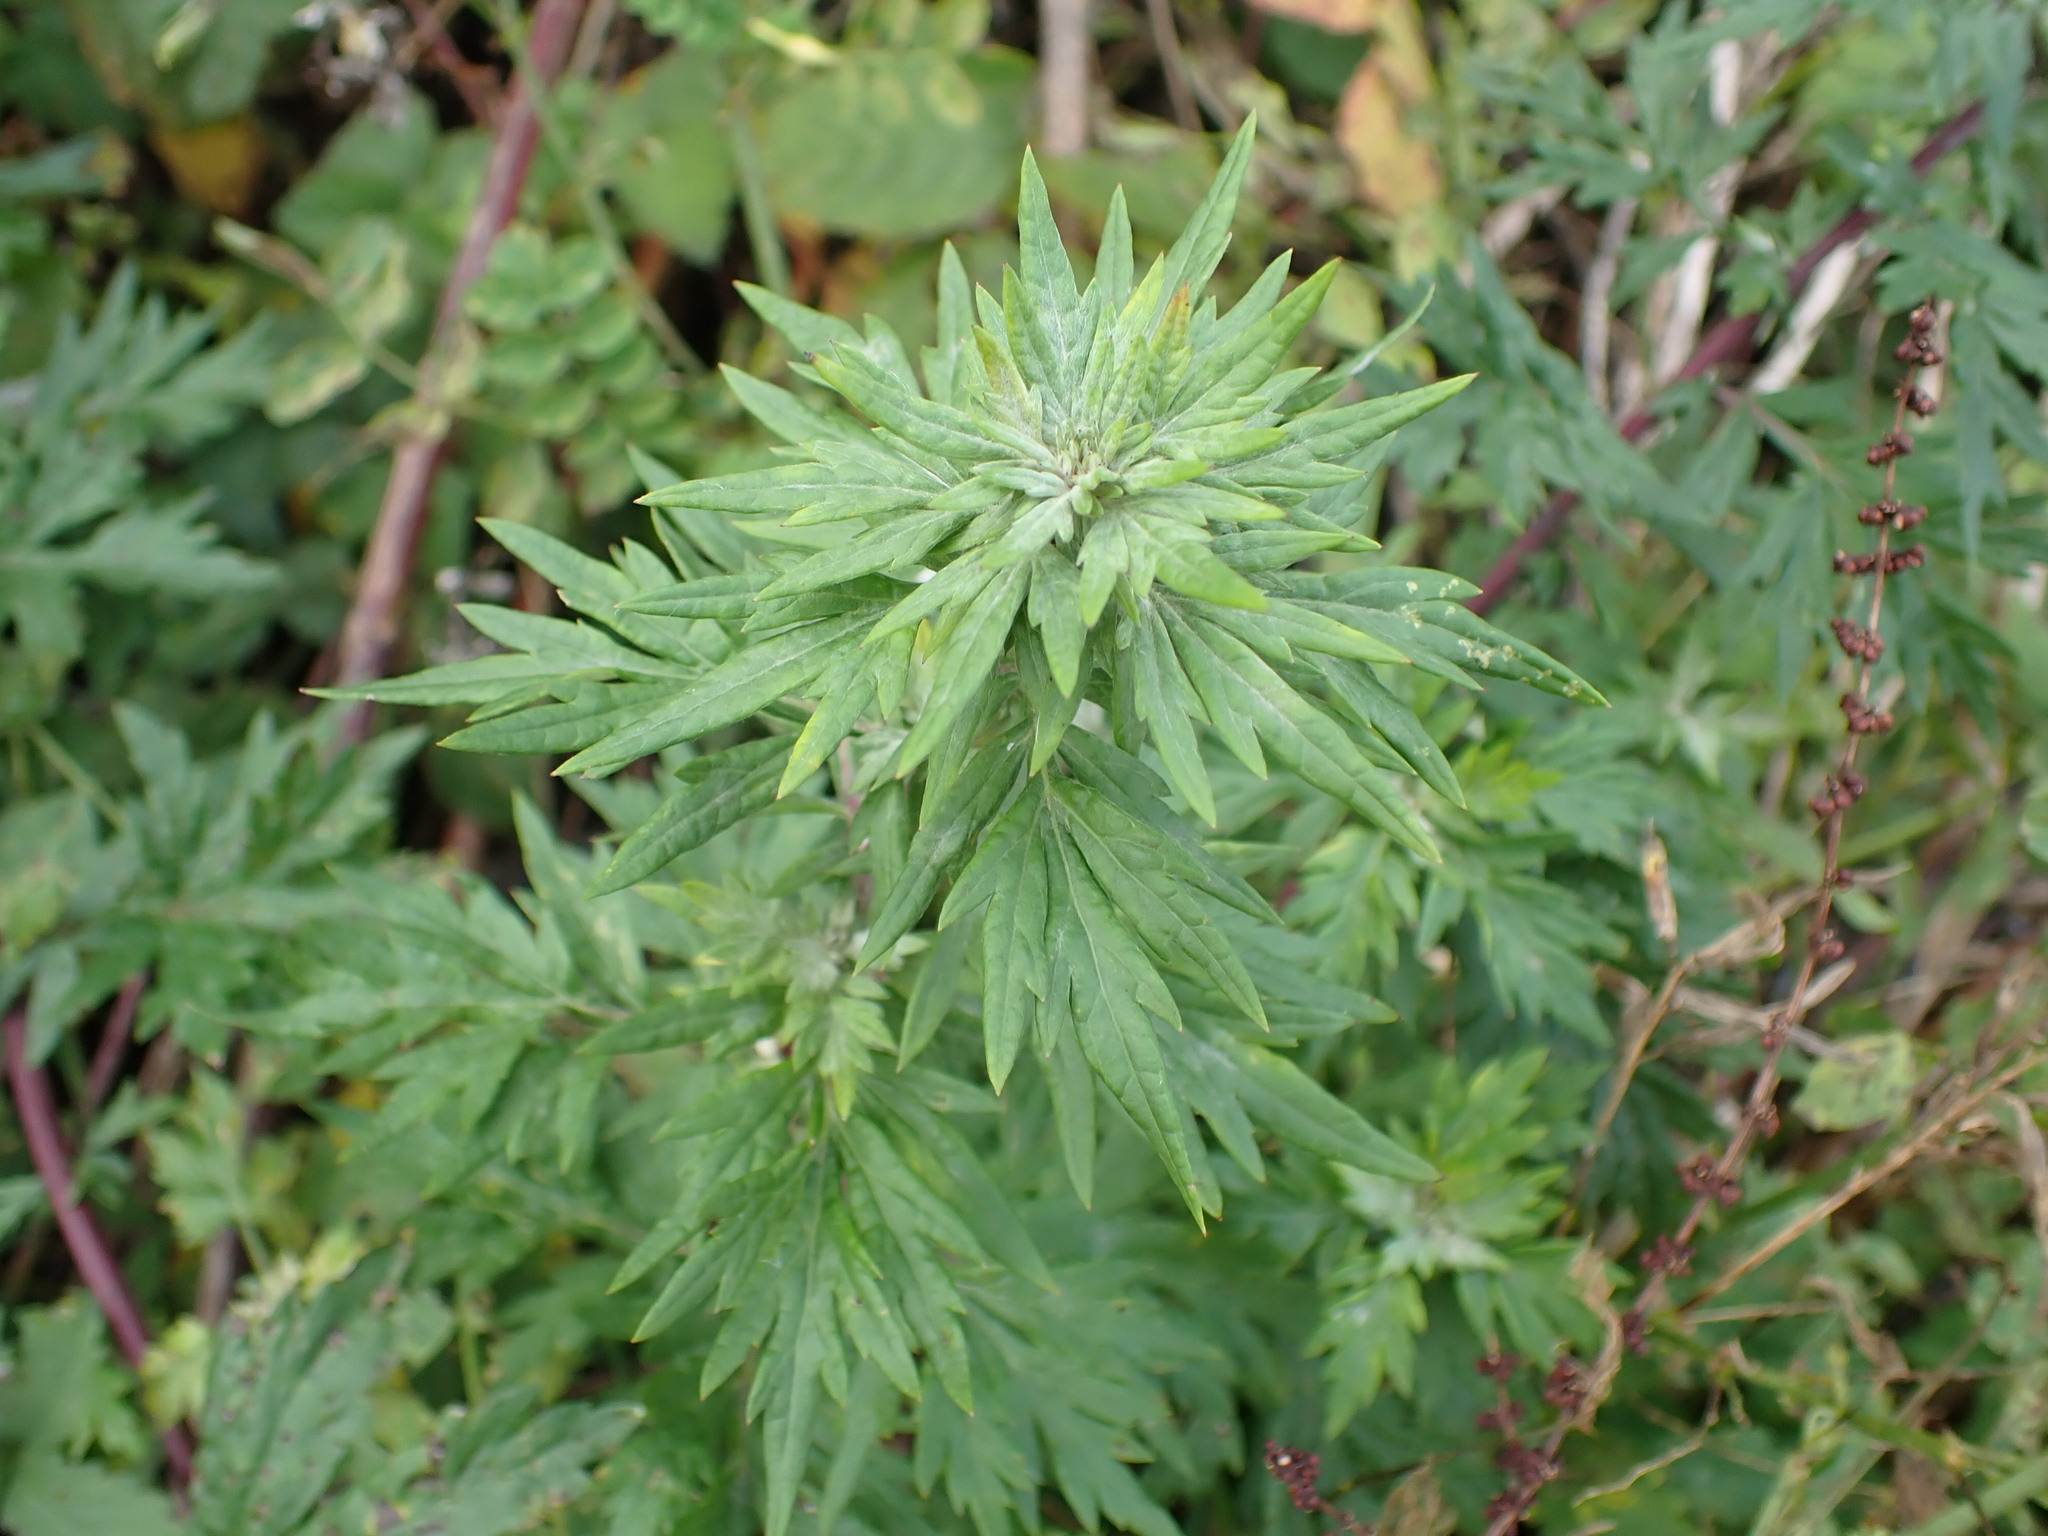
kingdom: Plantae
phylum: Tracheophyta
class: Magnoliopsida
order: Asterales
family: Asteraceae
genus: Artemisia
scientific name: Artemisia vulgaris
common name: Mugwort
